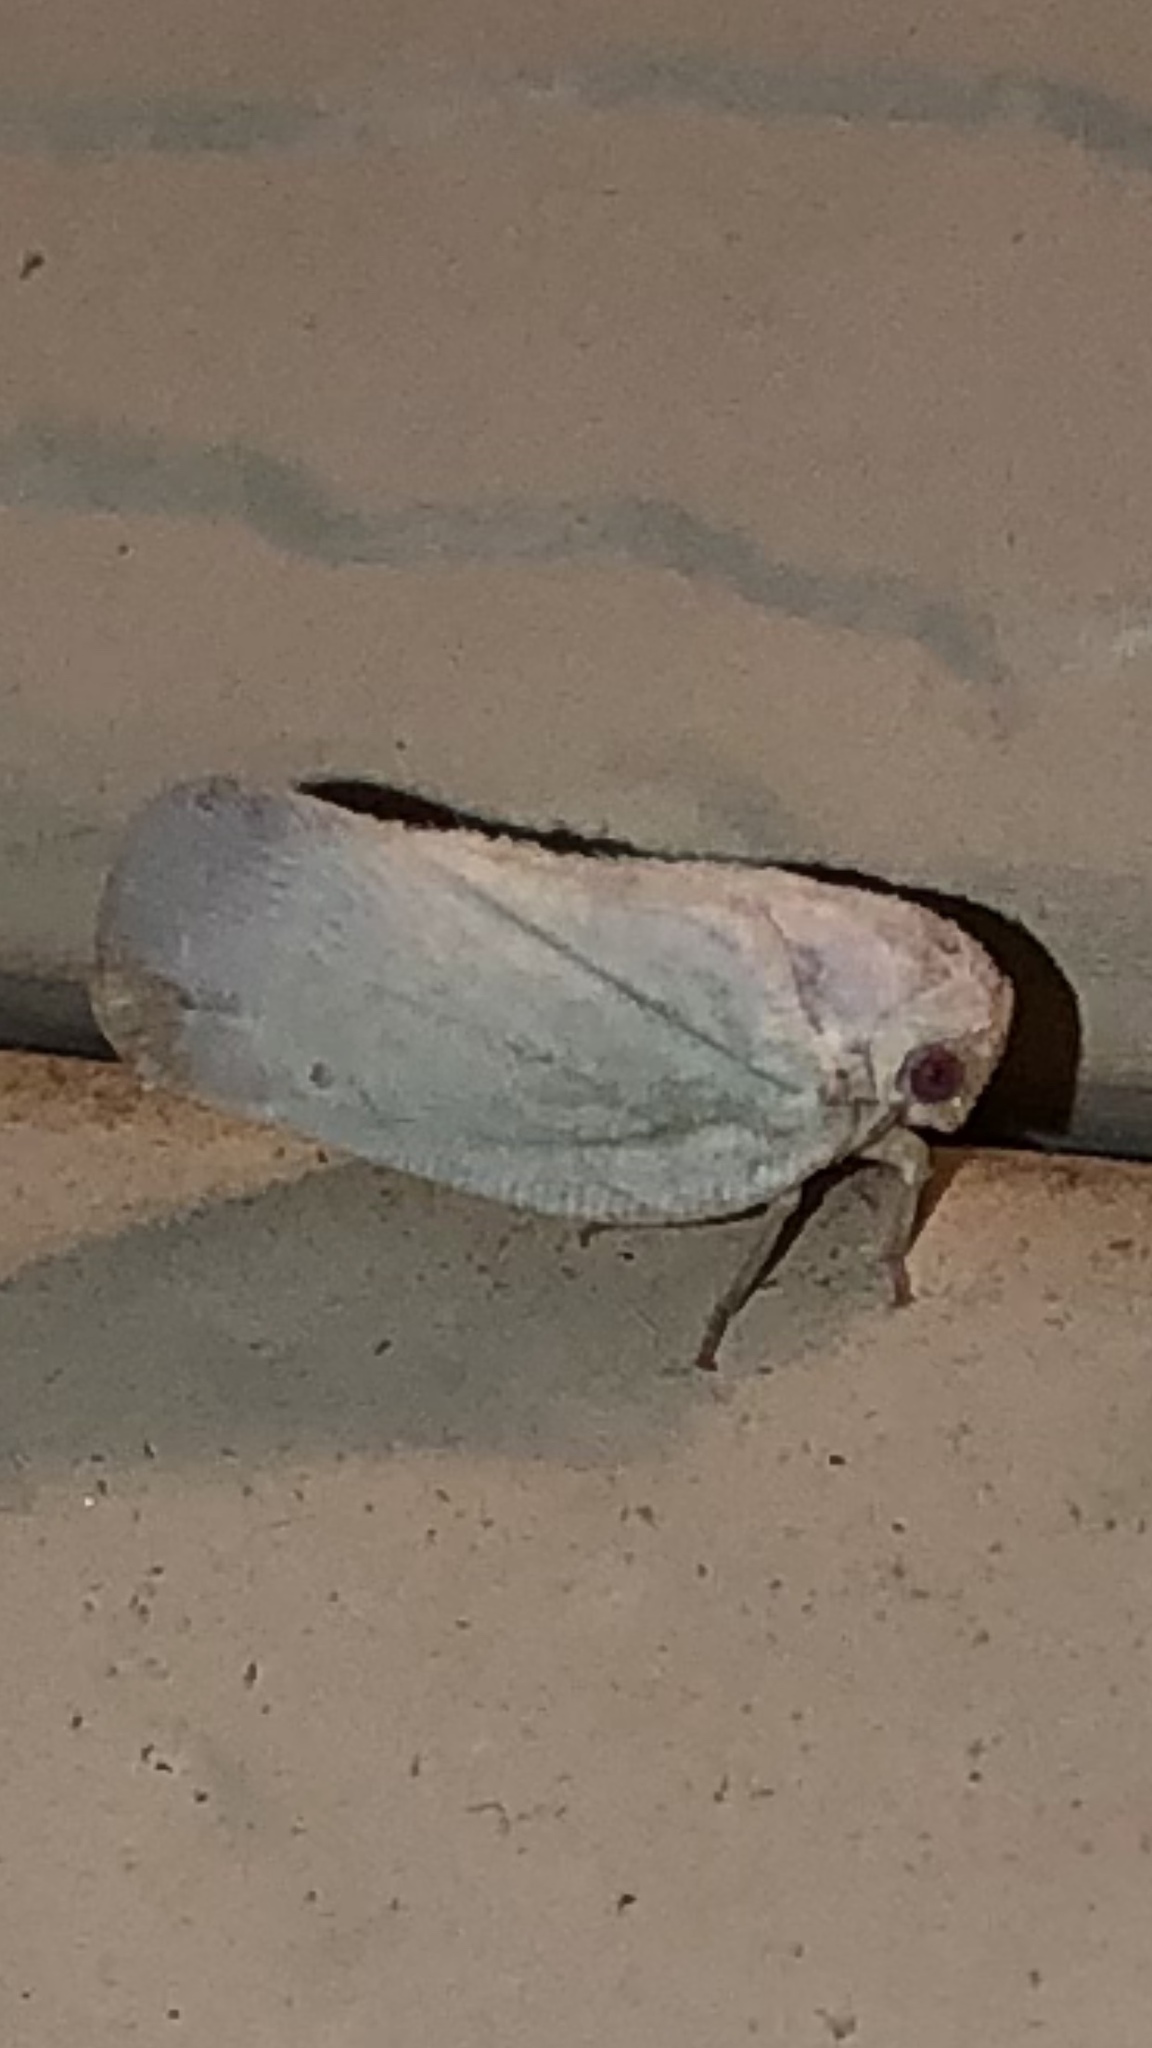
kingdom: Animalia
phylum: Arthropoda
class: Insecta
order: Hemiptera
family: Flatidae
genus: Flatormenis
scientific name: Flatormenis saucia
